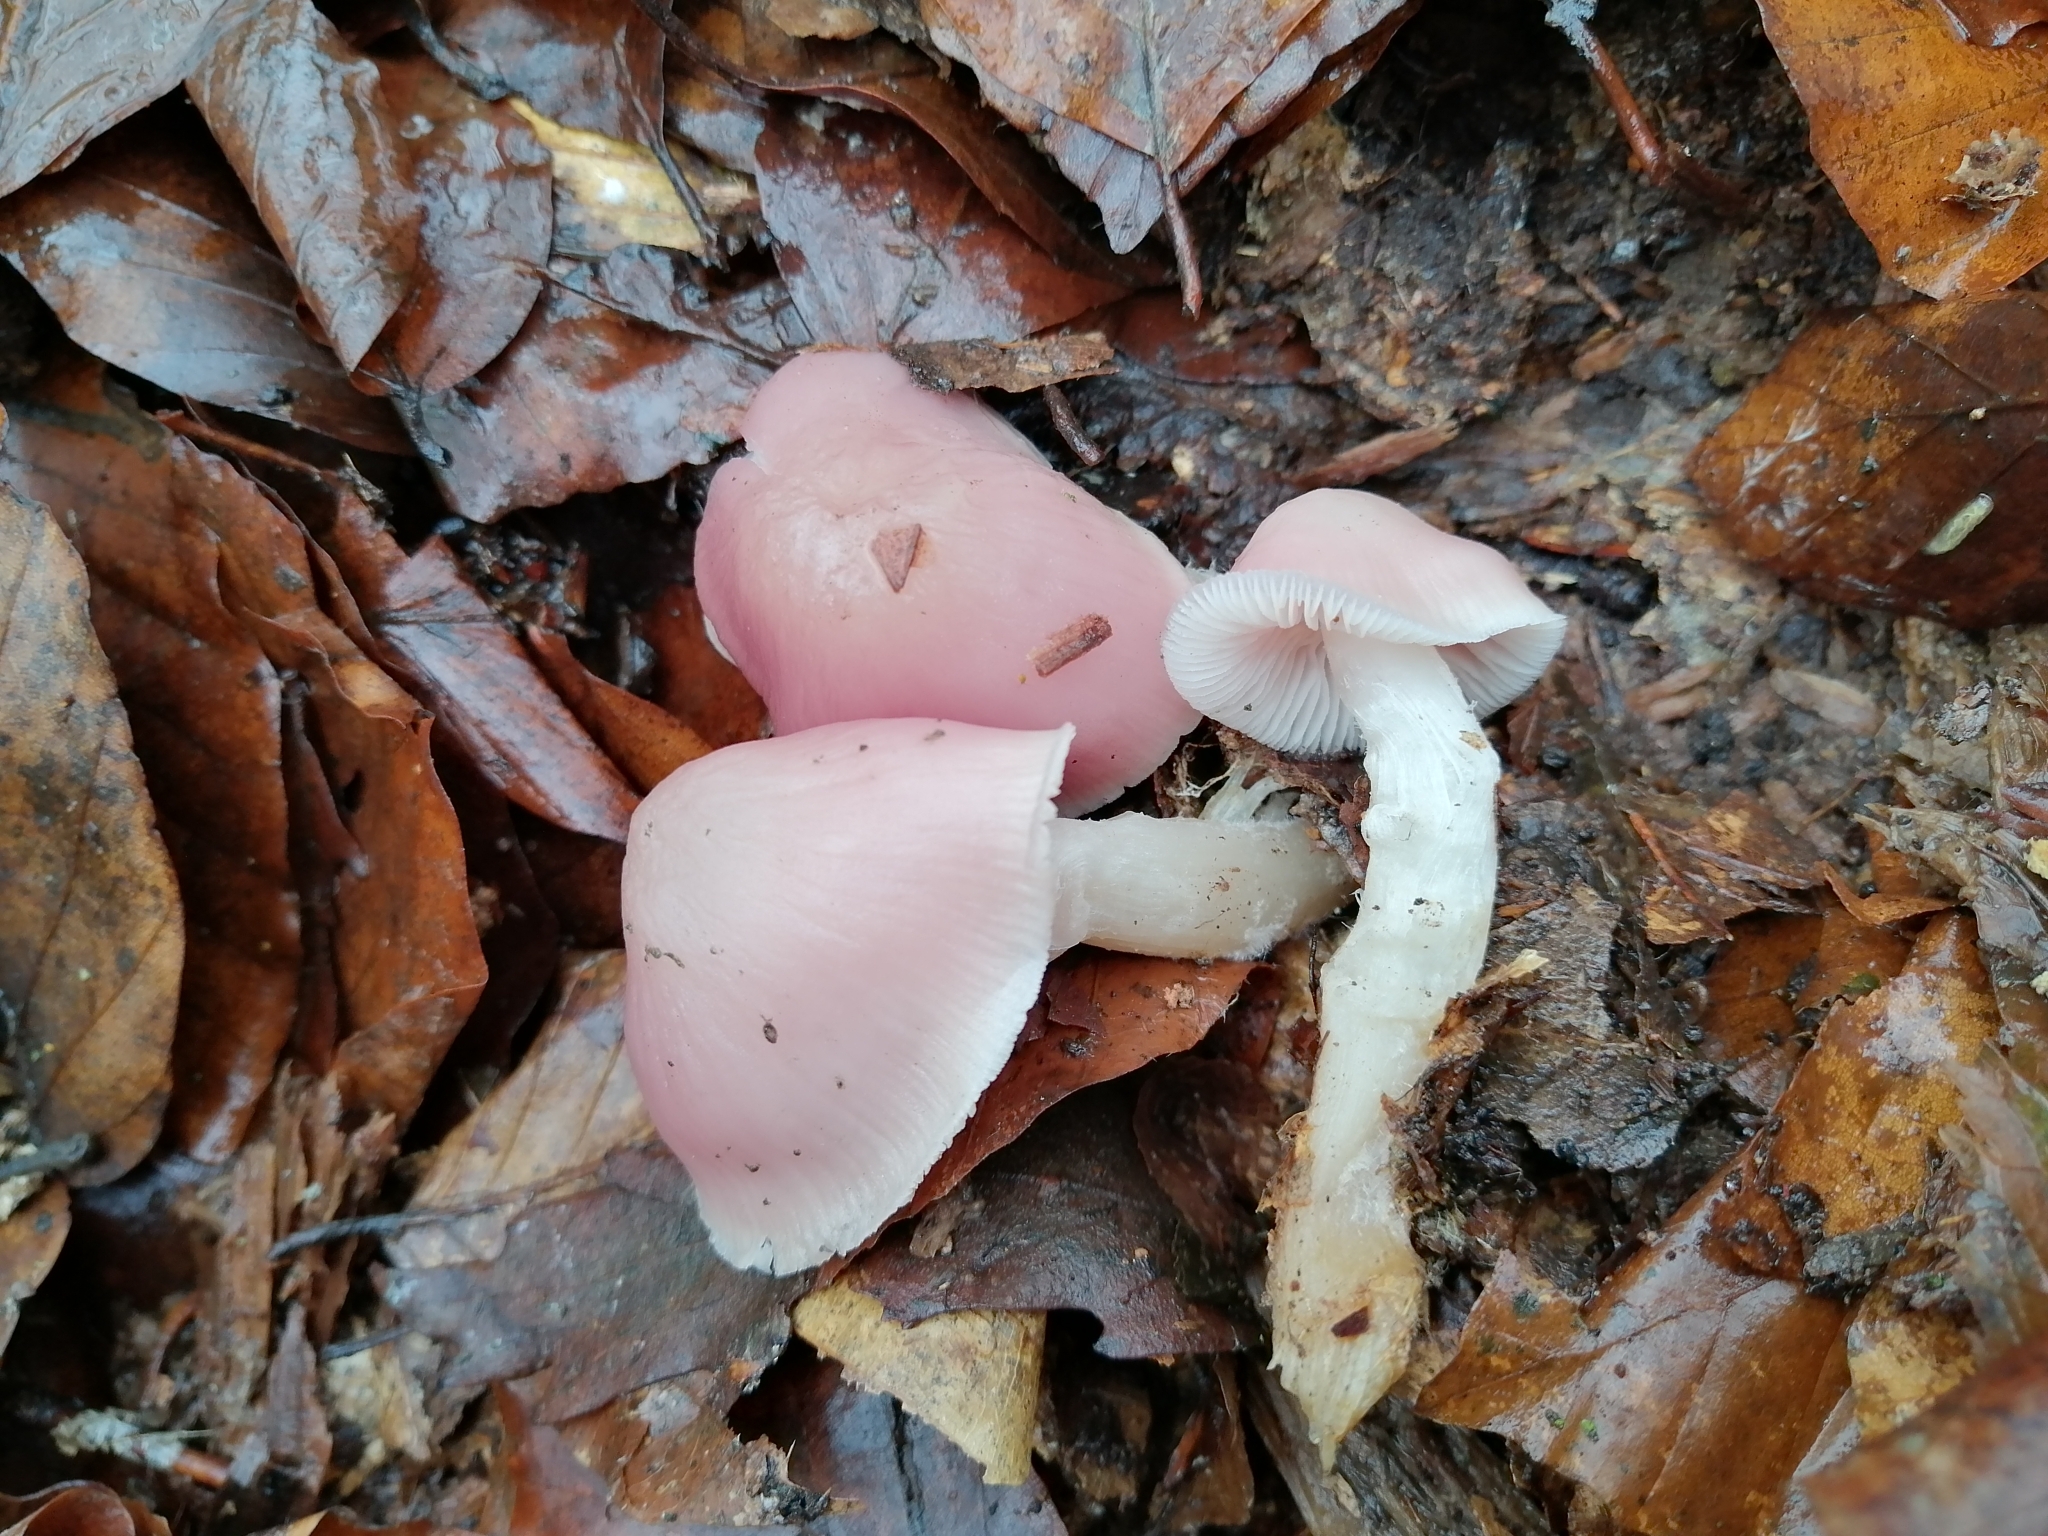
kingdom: Fungi
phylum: Basidiomycota
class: Agaricomycetes
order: Agaricales
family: Mycenaceae
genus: Mycena
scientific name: Mycena rosea
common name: Rosy bonnet
